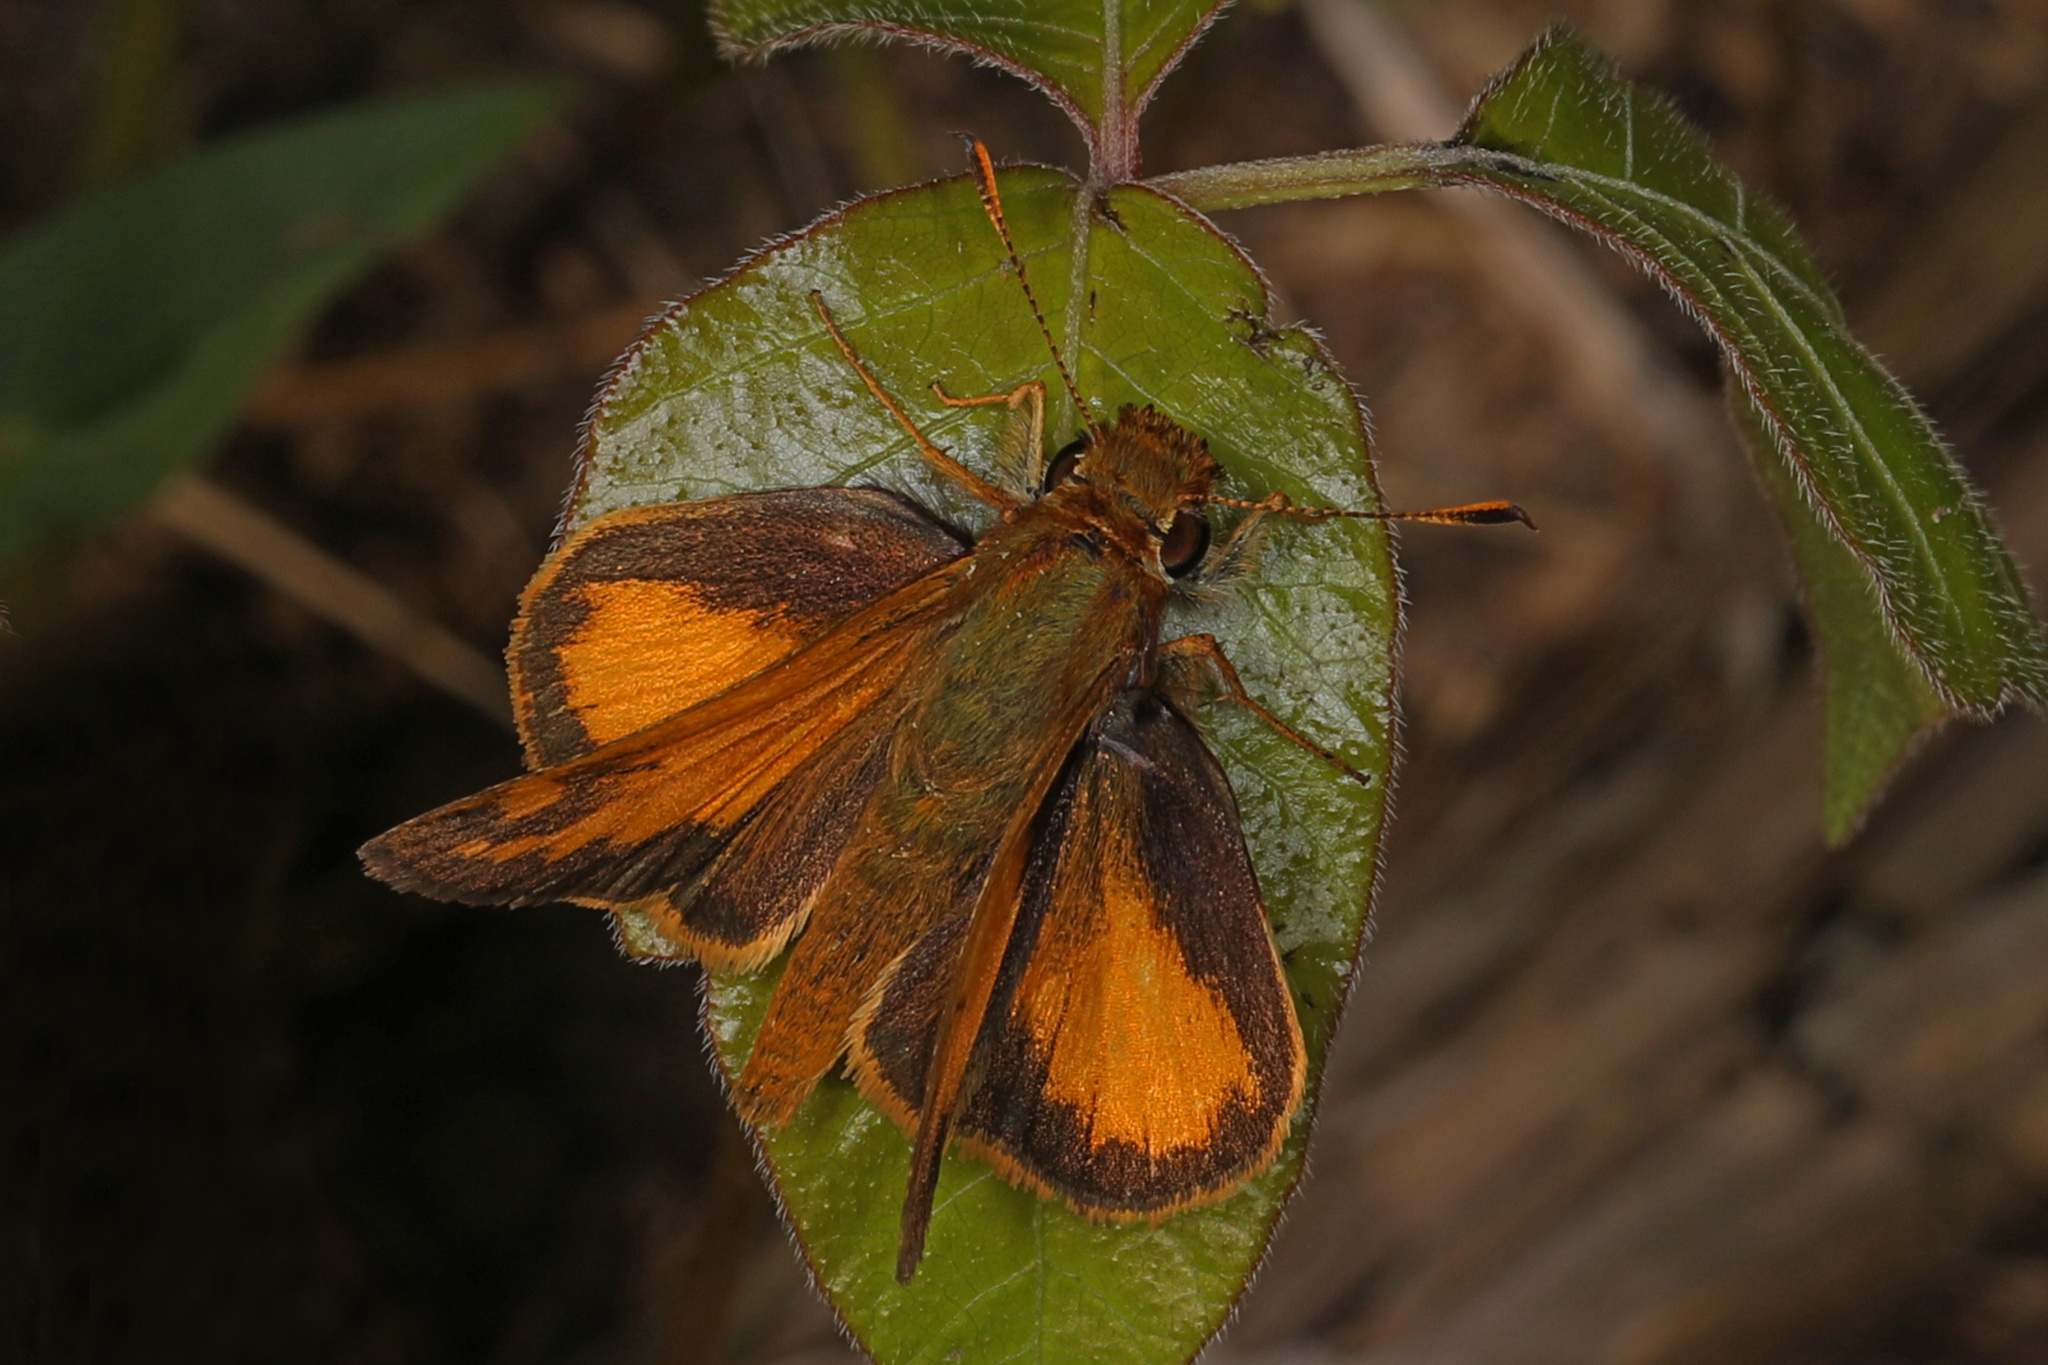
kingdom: Animalia
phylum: Arthropoda
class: Insecta
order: Lepidoptera
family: Hesperiidae
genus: Lon
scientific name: Lon zabulon
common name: Zabulon skipper
